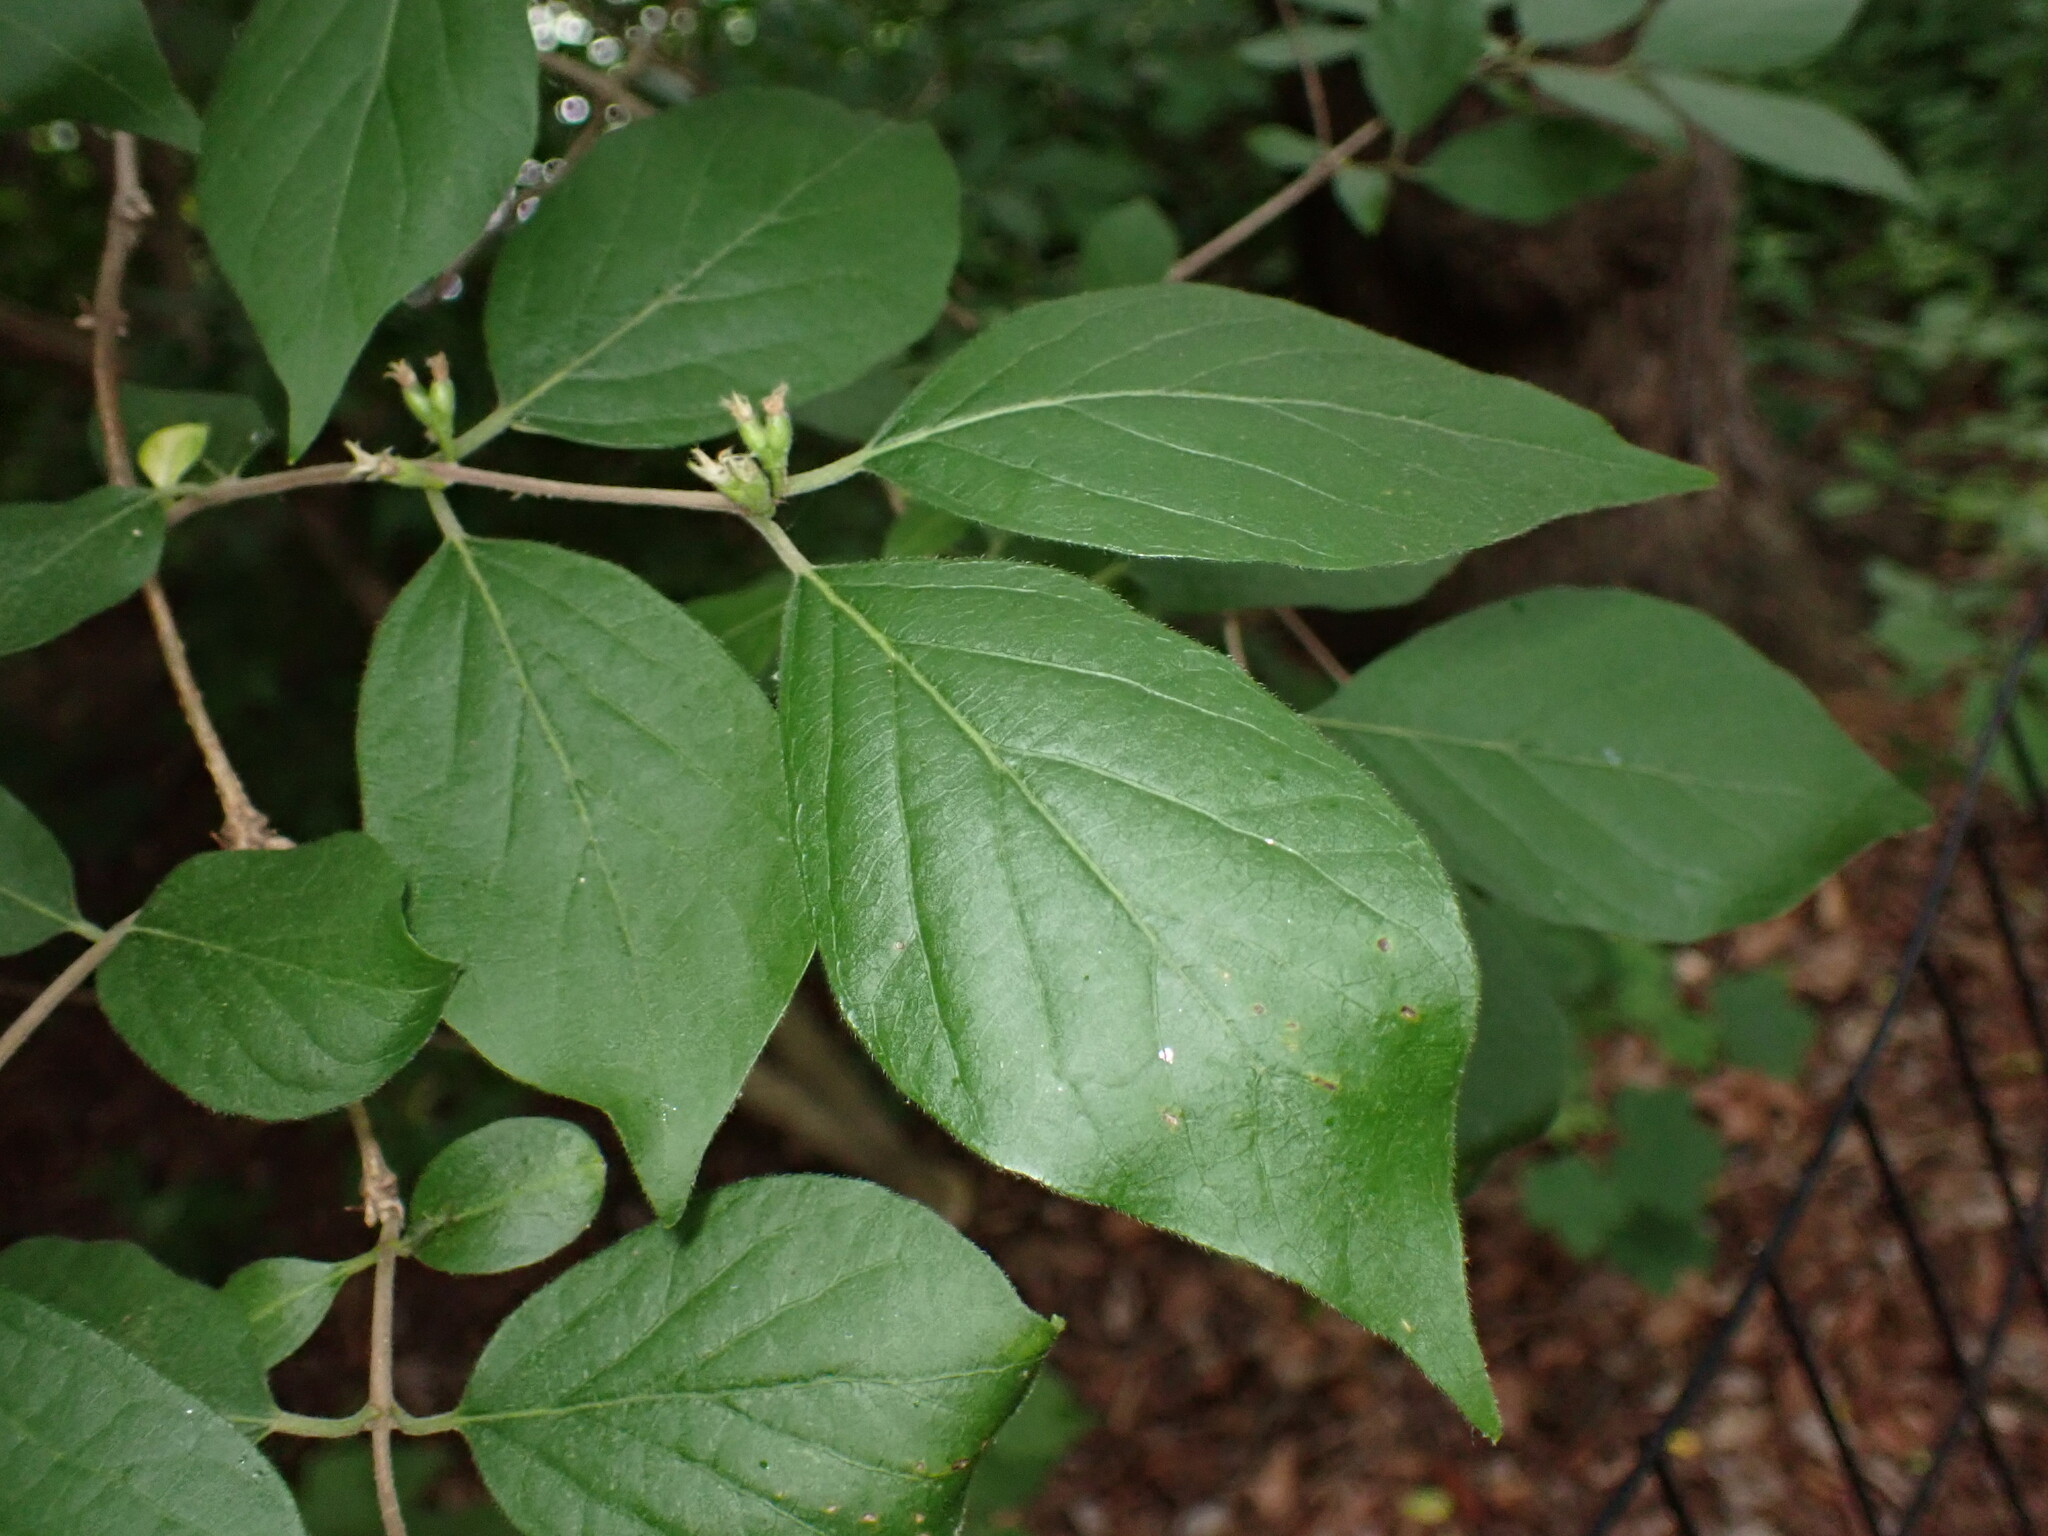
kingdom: Plantae
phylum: Tracheophyta
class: Magnoliopsida
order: Dipsacales
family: Caprifoliaceae
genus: Lonicera
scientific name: Lonicera maackii
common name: Amur honeysuckle
